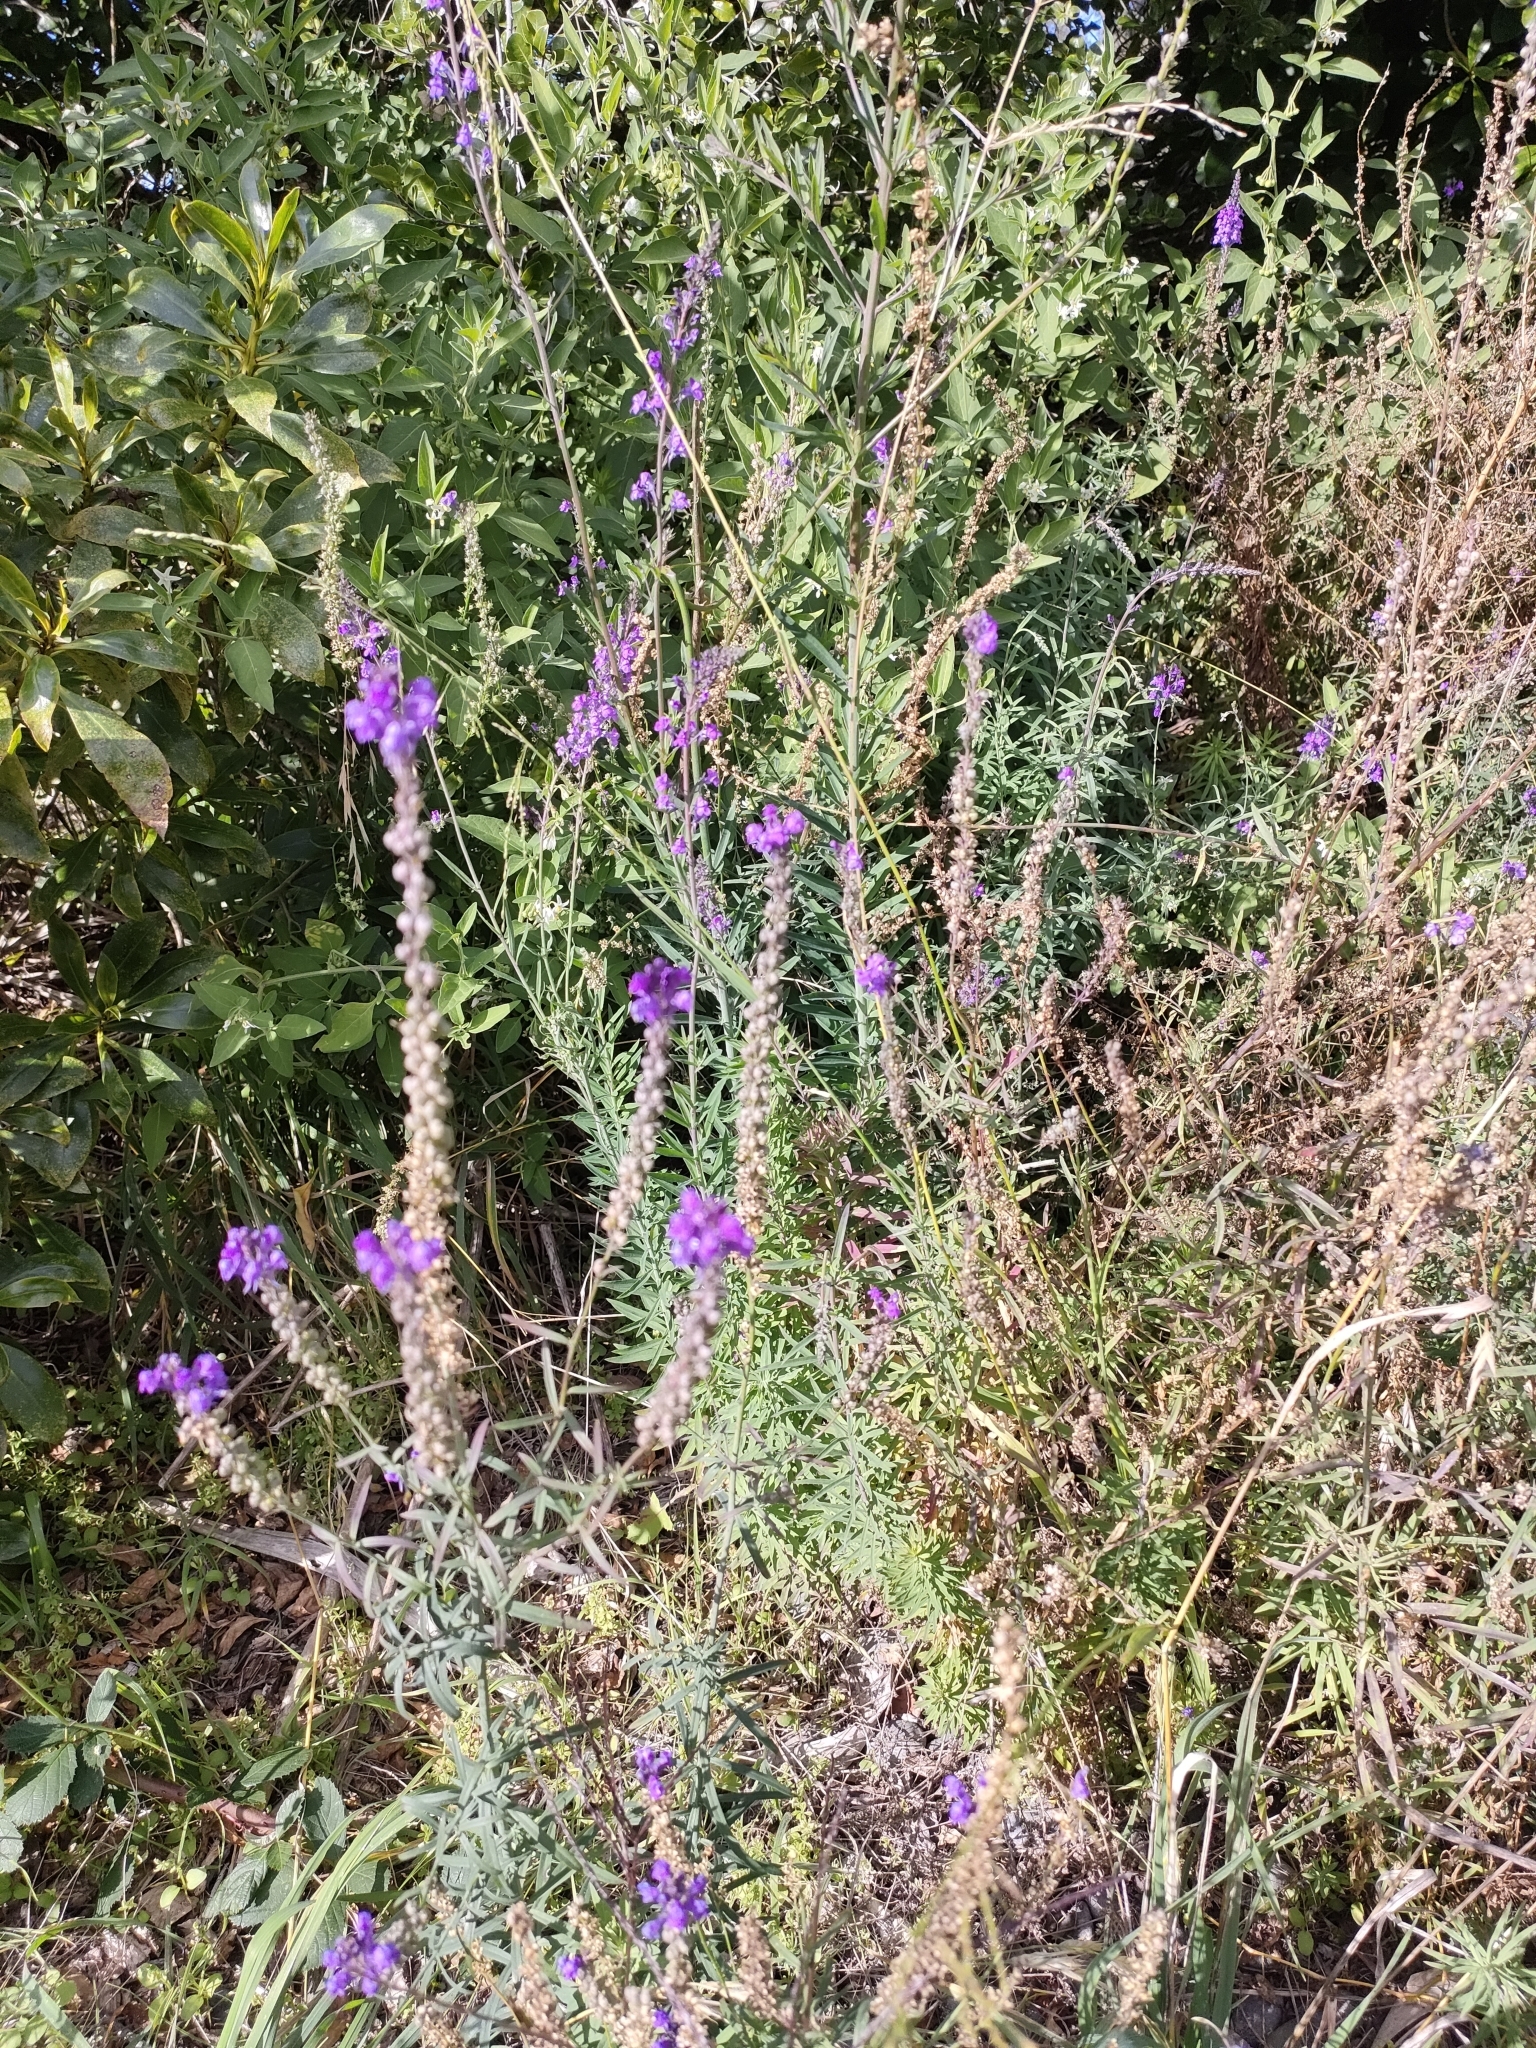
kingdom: Plantae
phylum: Tracheophyta
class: Magnoliopsida
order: Lamiales
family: Plantaginaceae
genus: Linaria
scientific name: Linaria purpurea
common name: Purple toadflax
